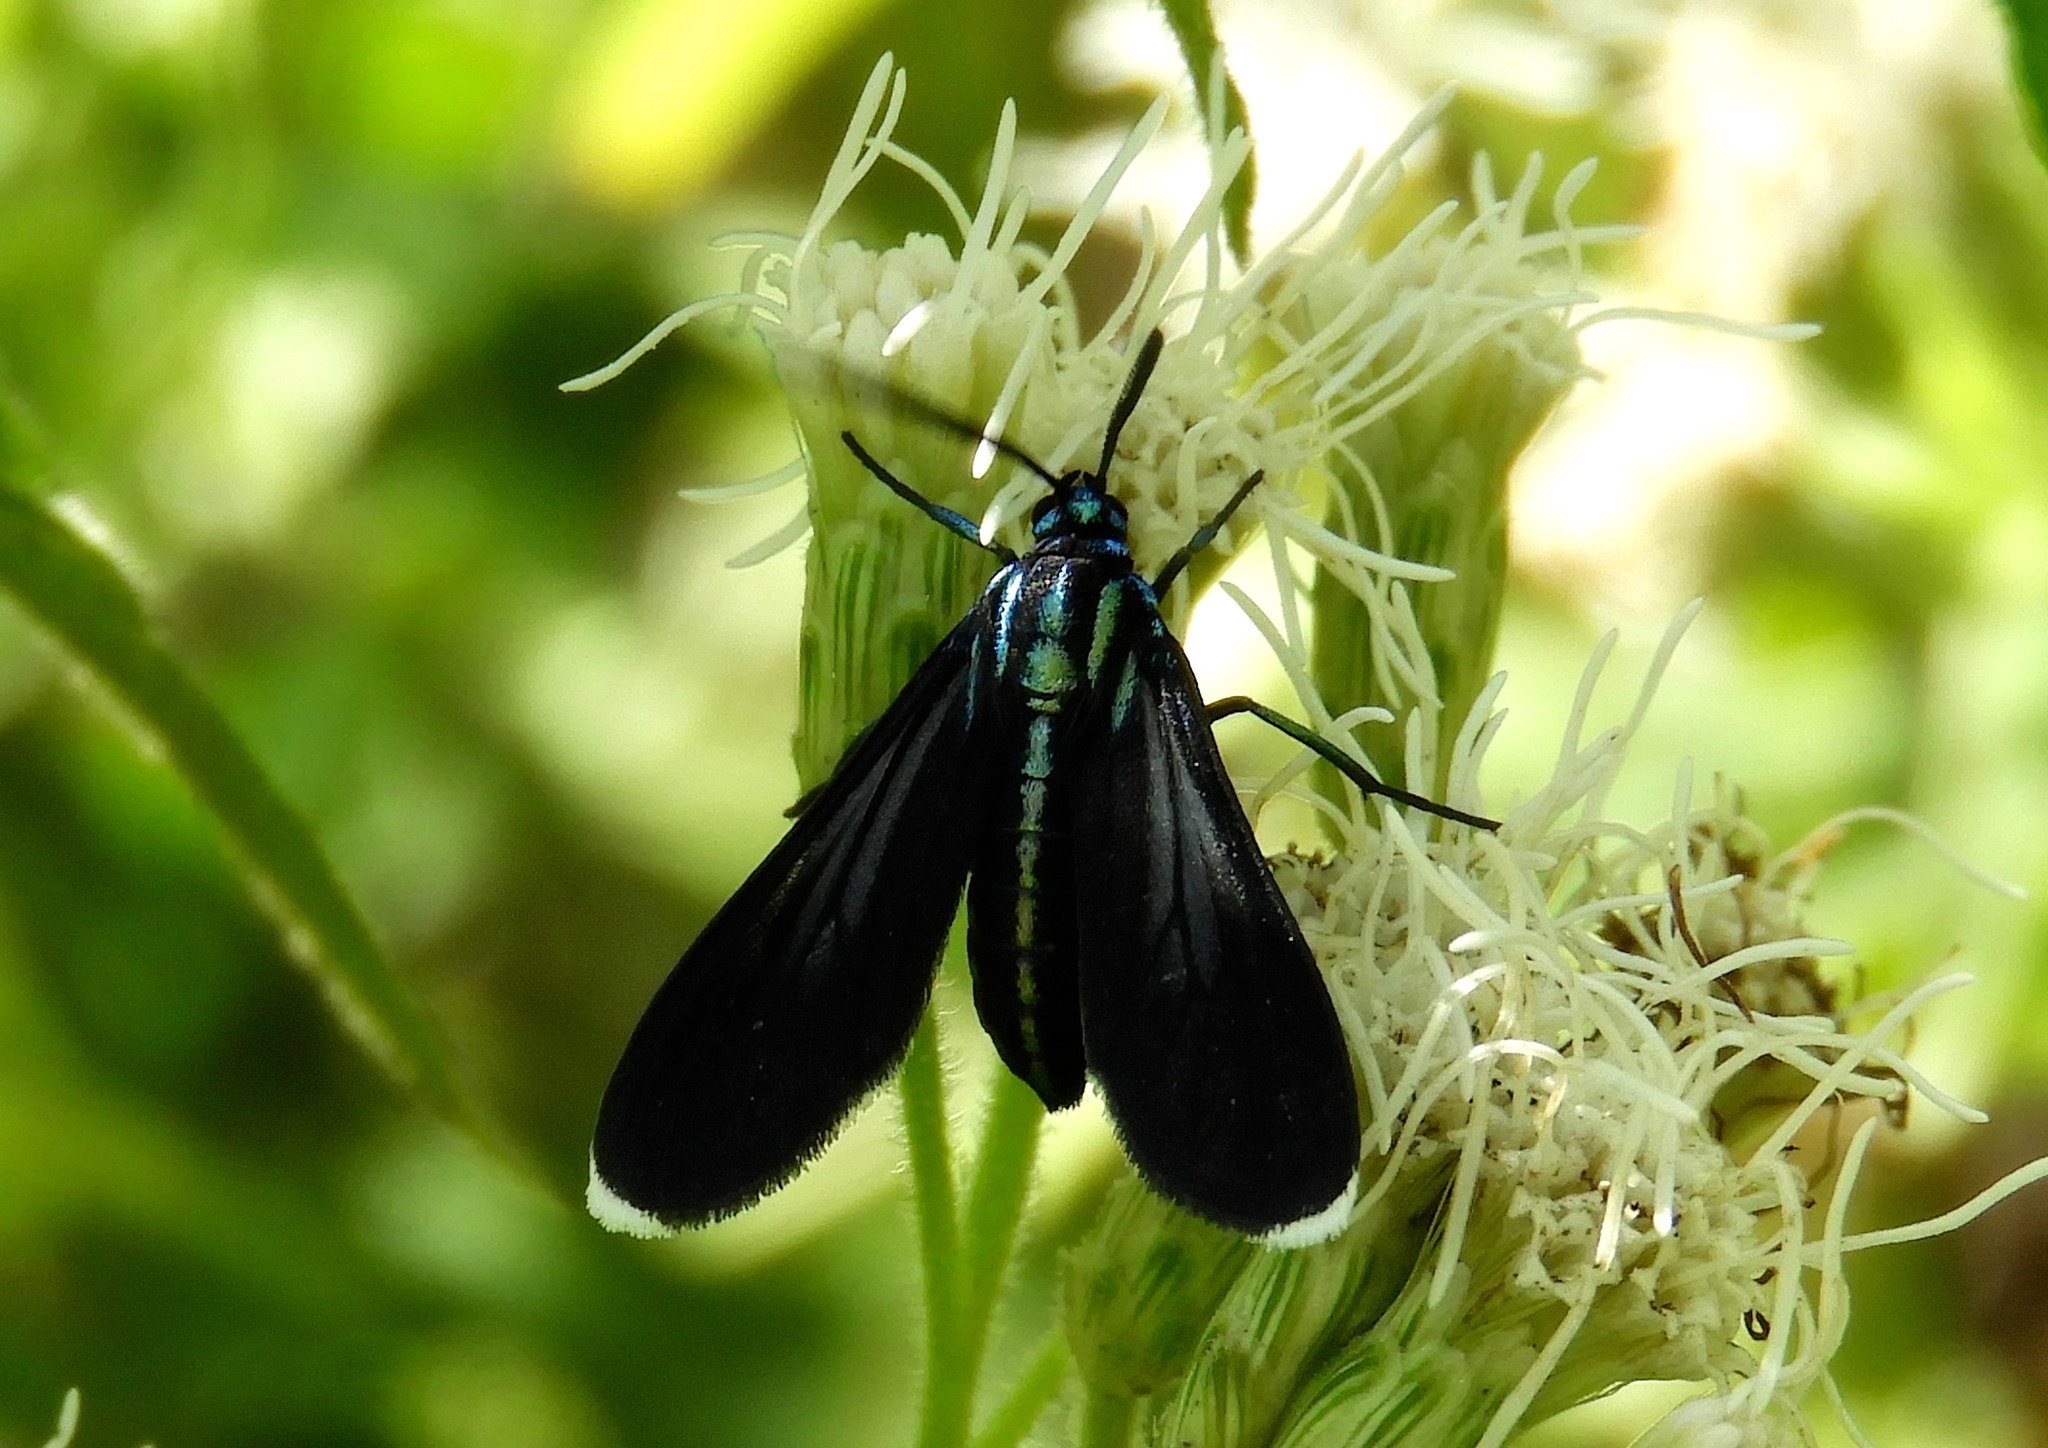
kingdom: Animalia
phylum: Arthropoda
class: Insecta
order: Lepidoptera
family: Erebidae
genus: Uranophora
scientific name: Uranophora leucotela
